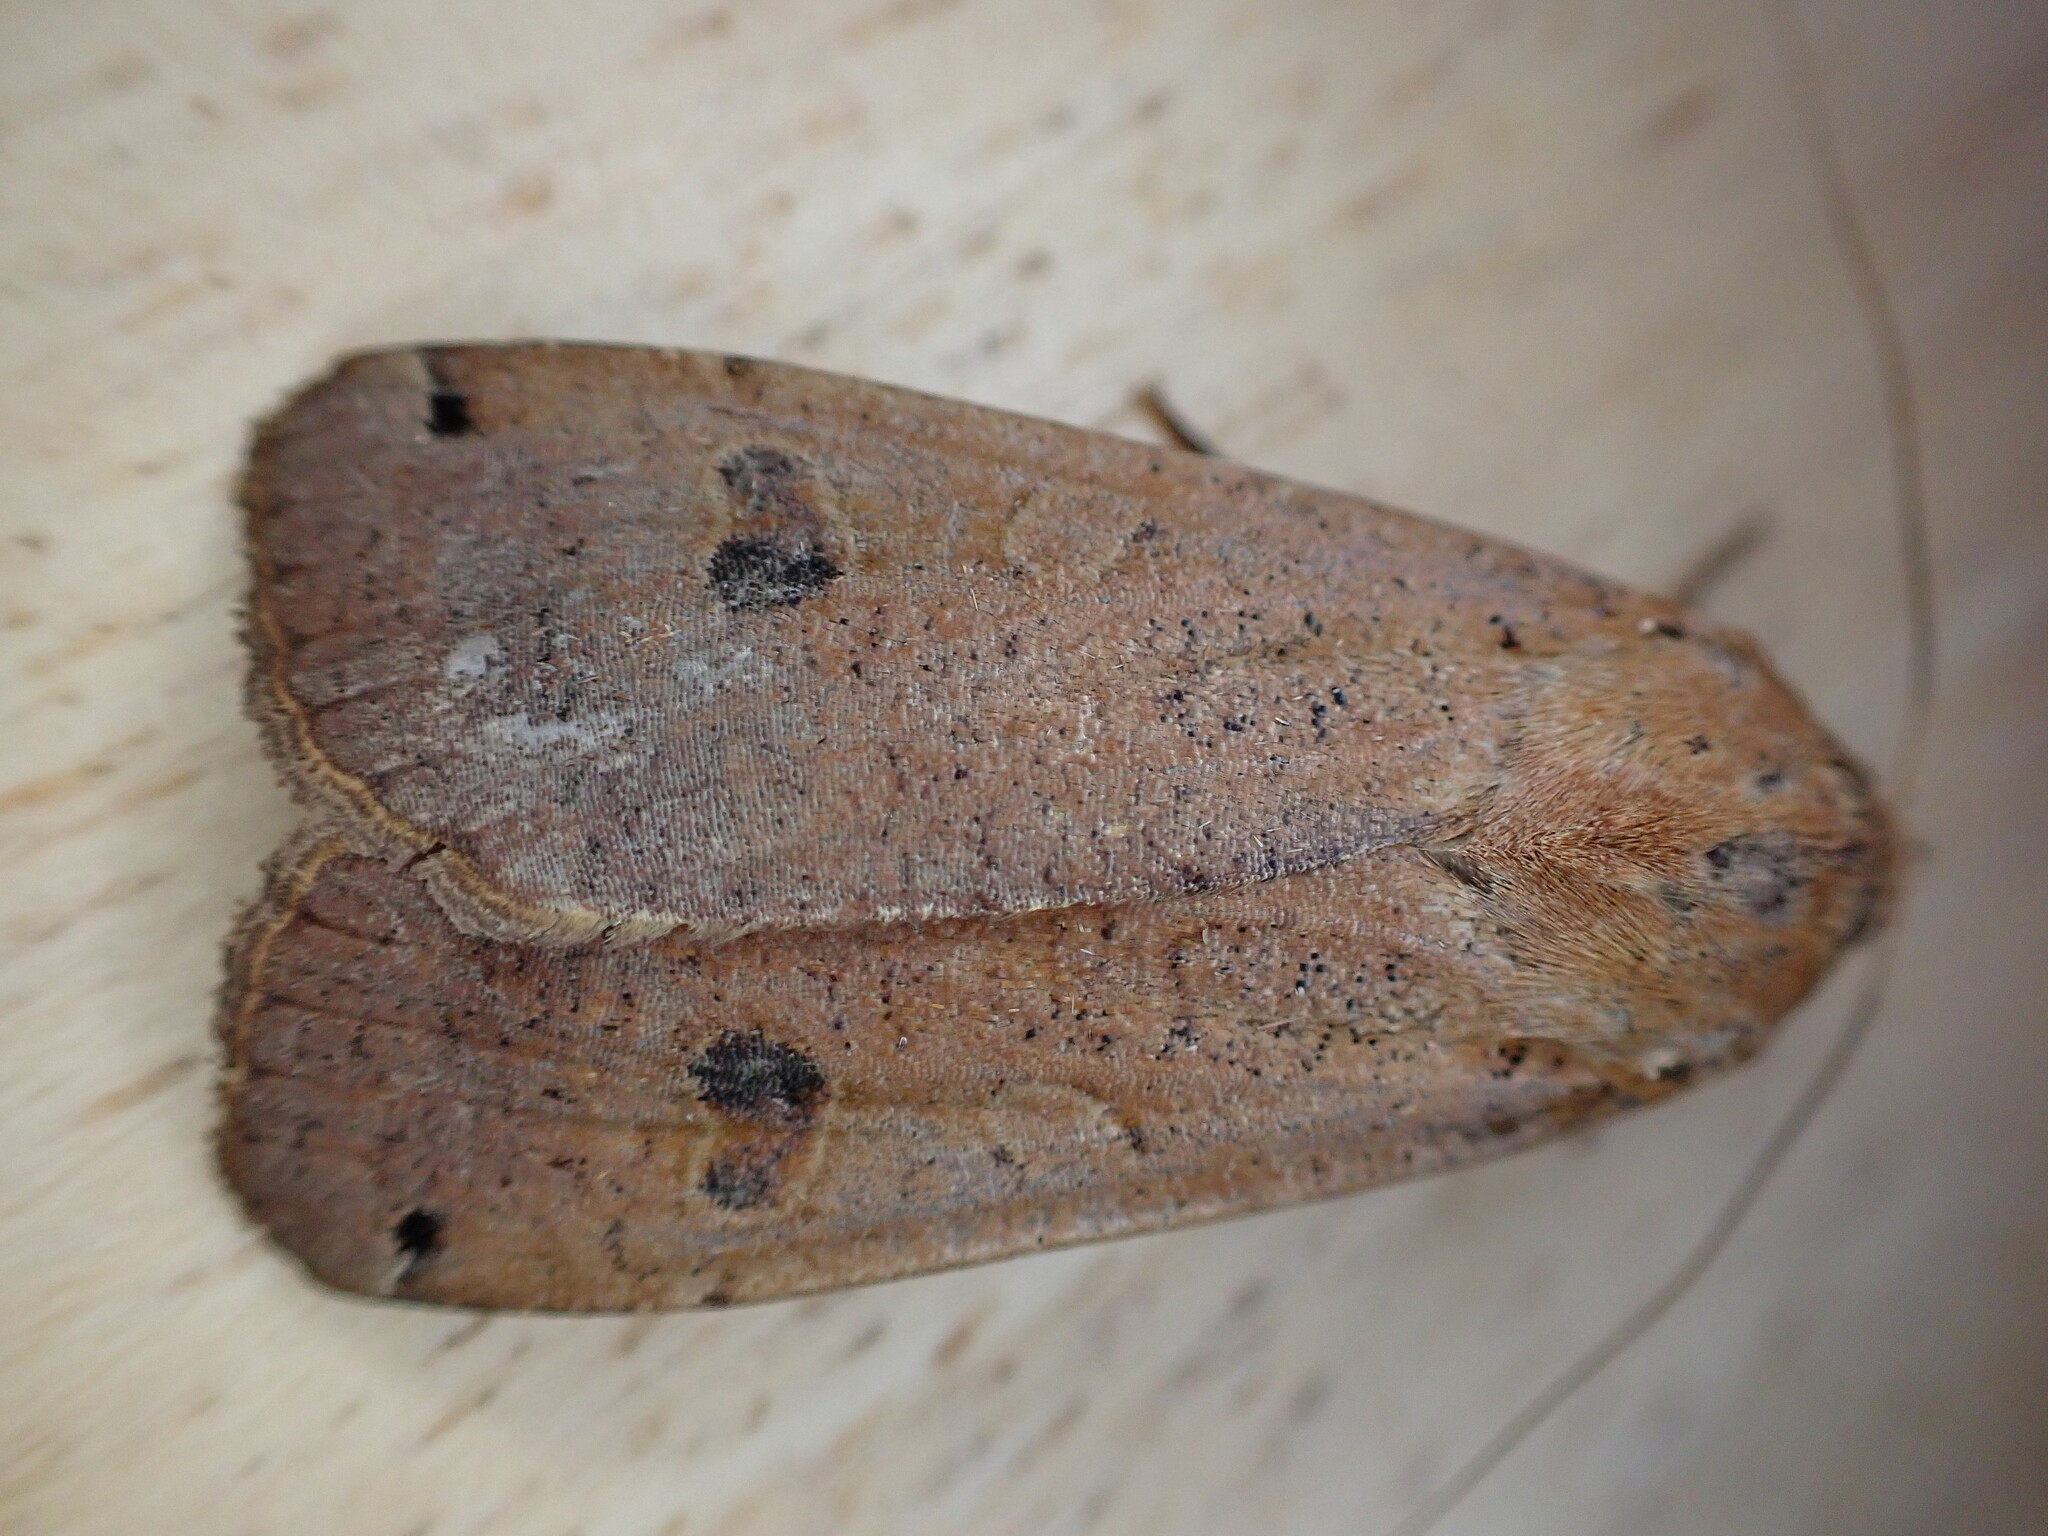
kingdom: Animalia
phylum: Arthropoda
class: Insecta
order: Lepidoptera
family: Noctuidae
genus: Noctua
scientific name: Noctua pronuba
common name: Large yellow underwing
